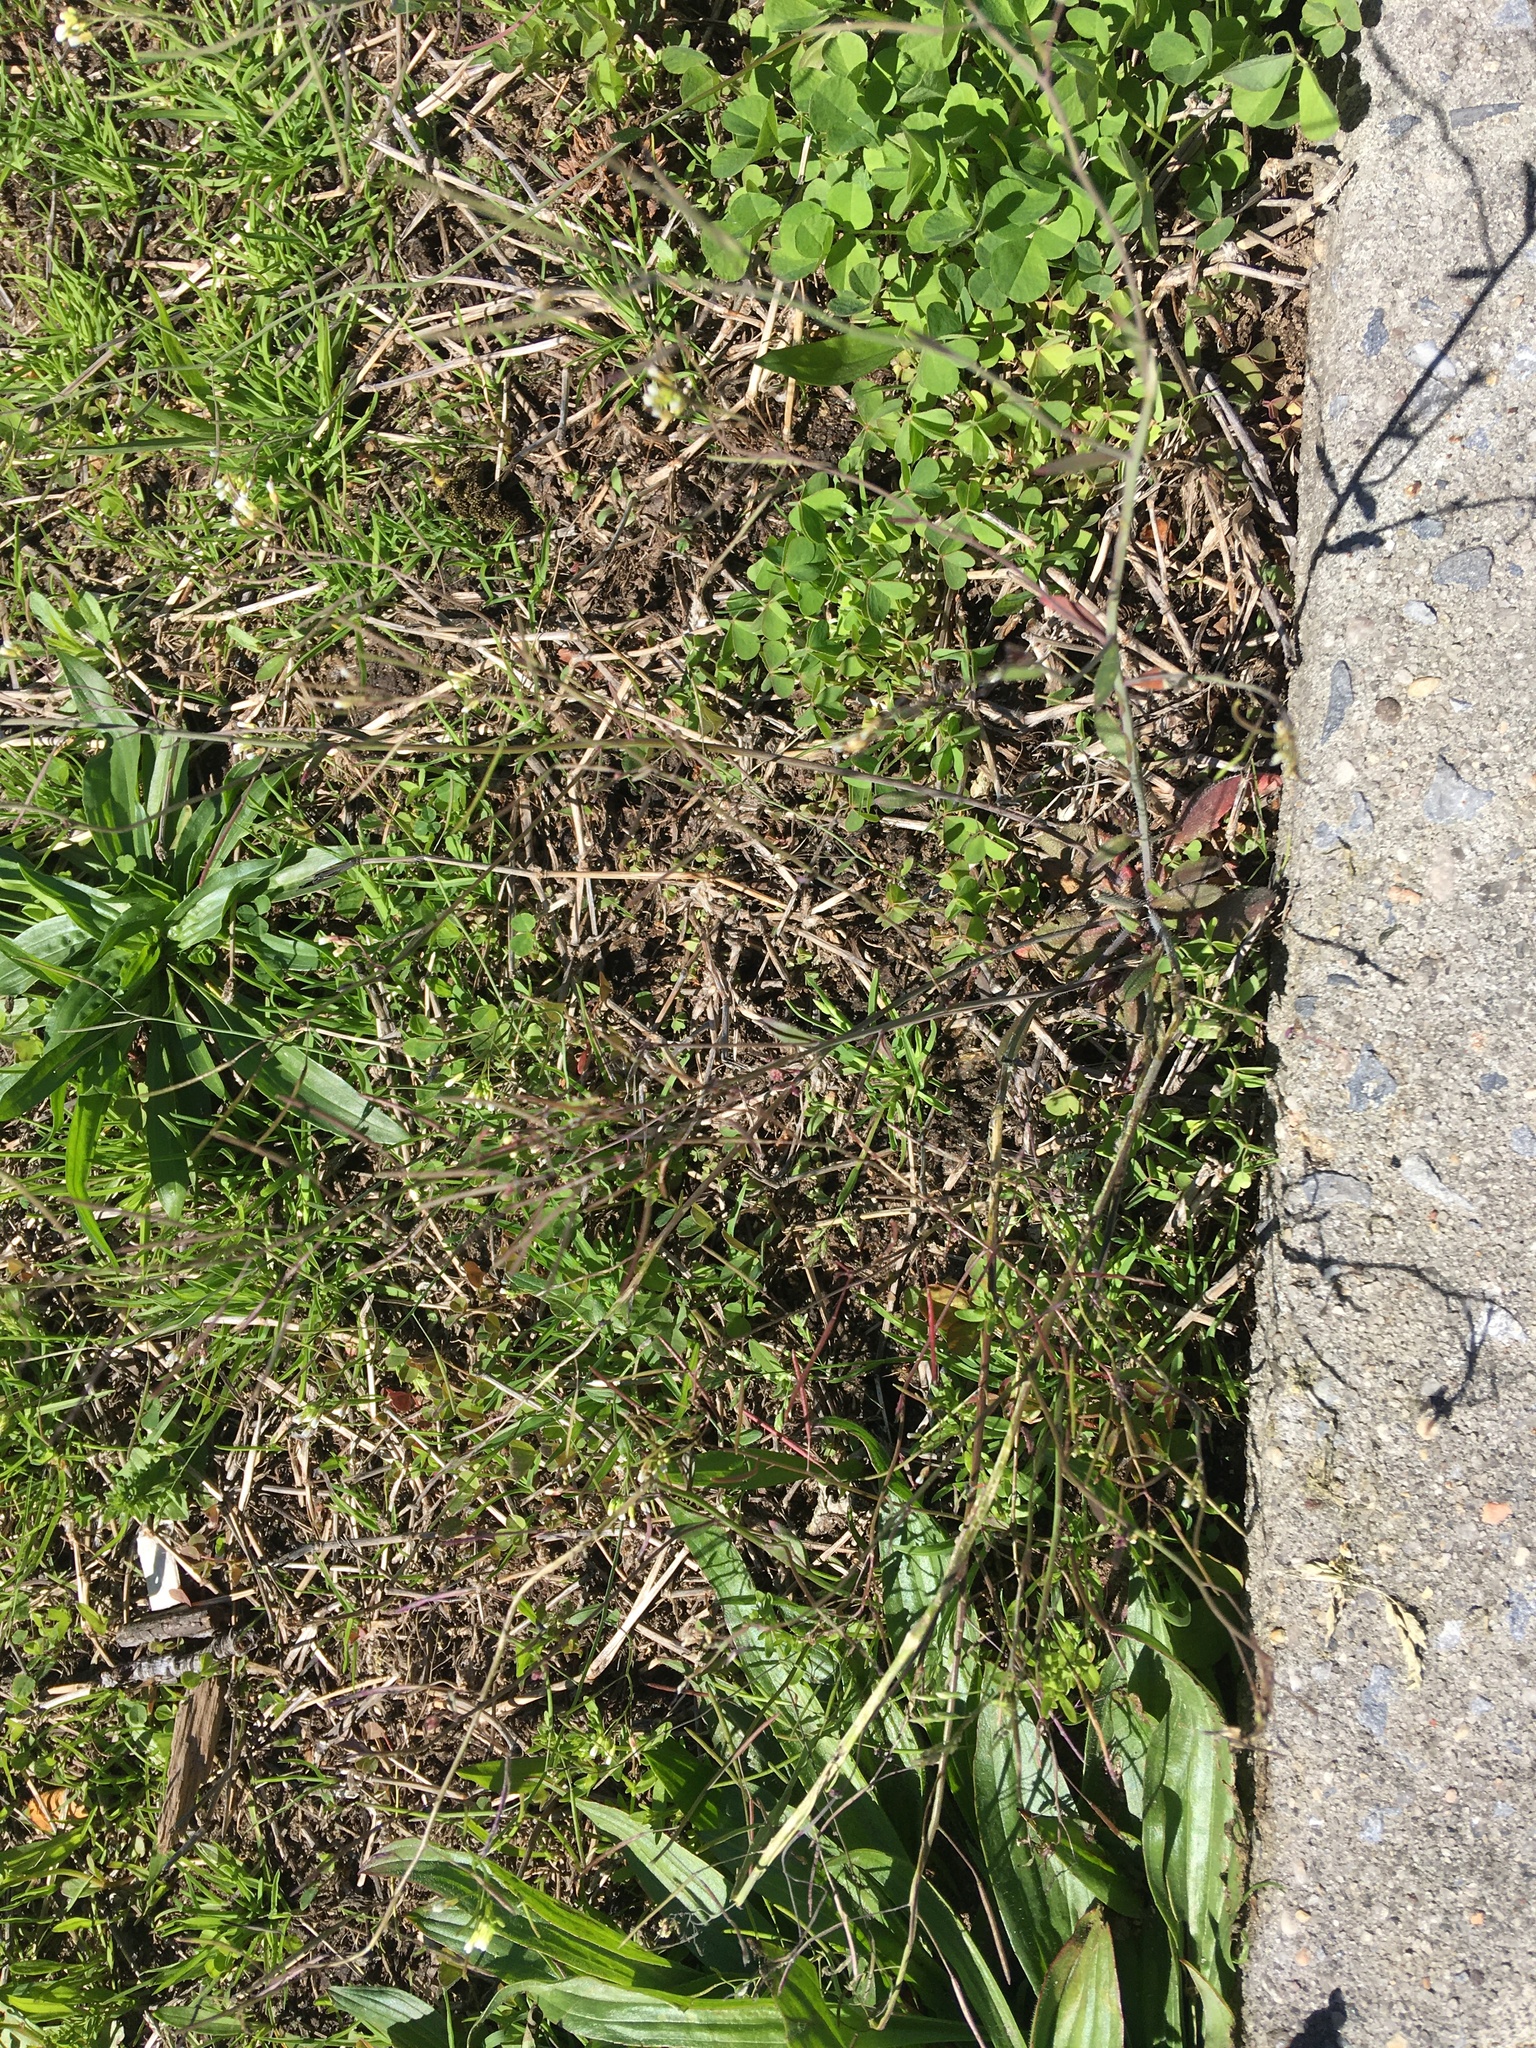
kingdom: Plantae
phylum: Tracheophyta
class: Magnoliopsida
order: Brassicales
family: Brassicaceae
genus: Arabidopsis
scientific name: Arabidopsis thaliana
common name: Thale cress
